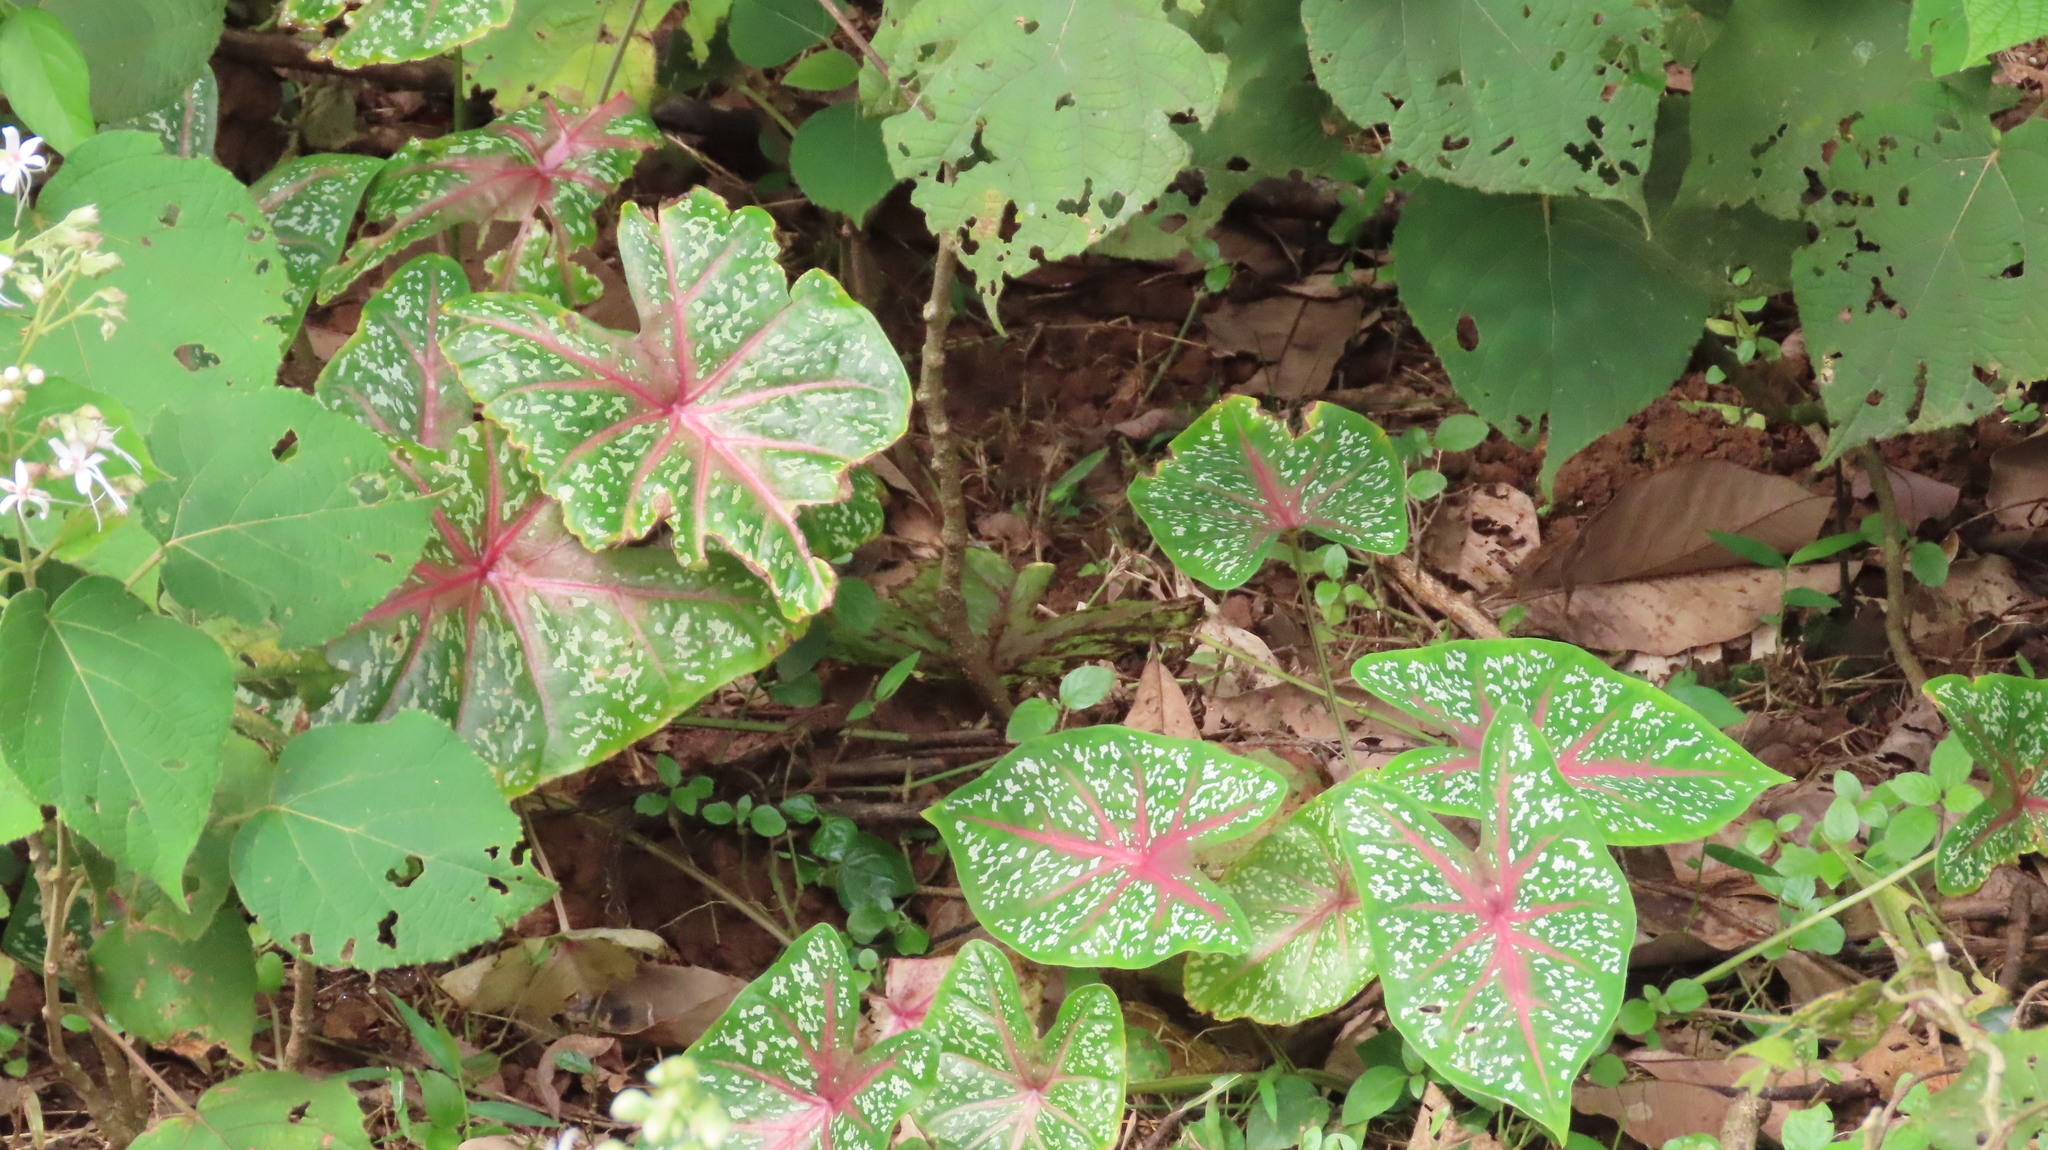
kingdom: Plantae
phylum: Tracheophyta
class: Liliopsida
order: Alismatales
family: Araceae
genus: Caladium
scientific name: Caladium bicolor
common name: Artist's pallet
